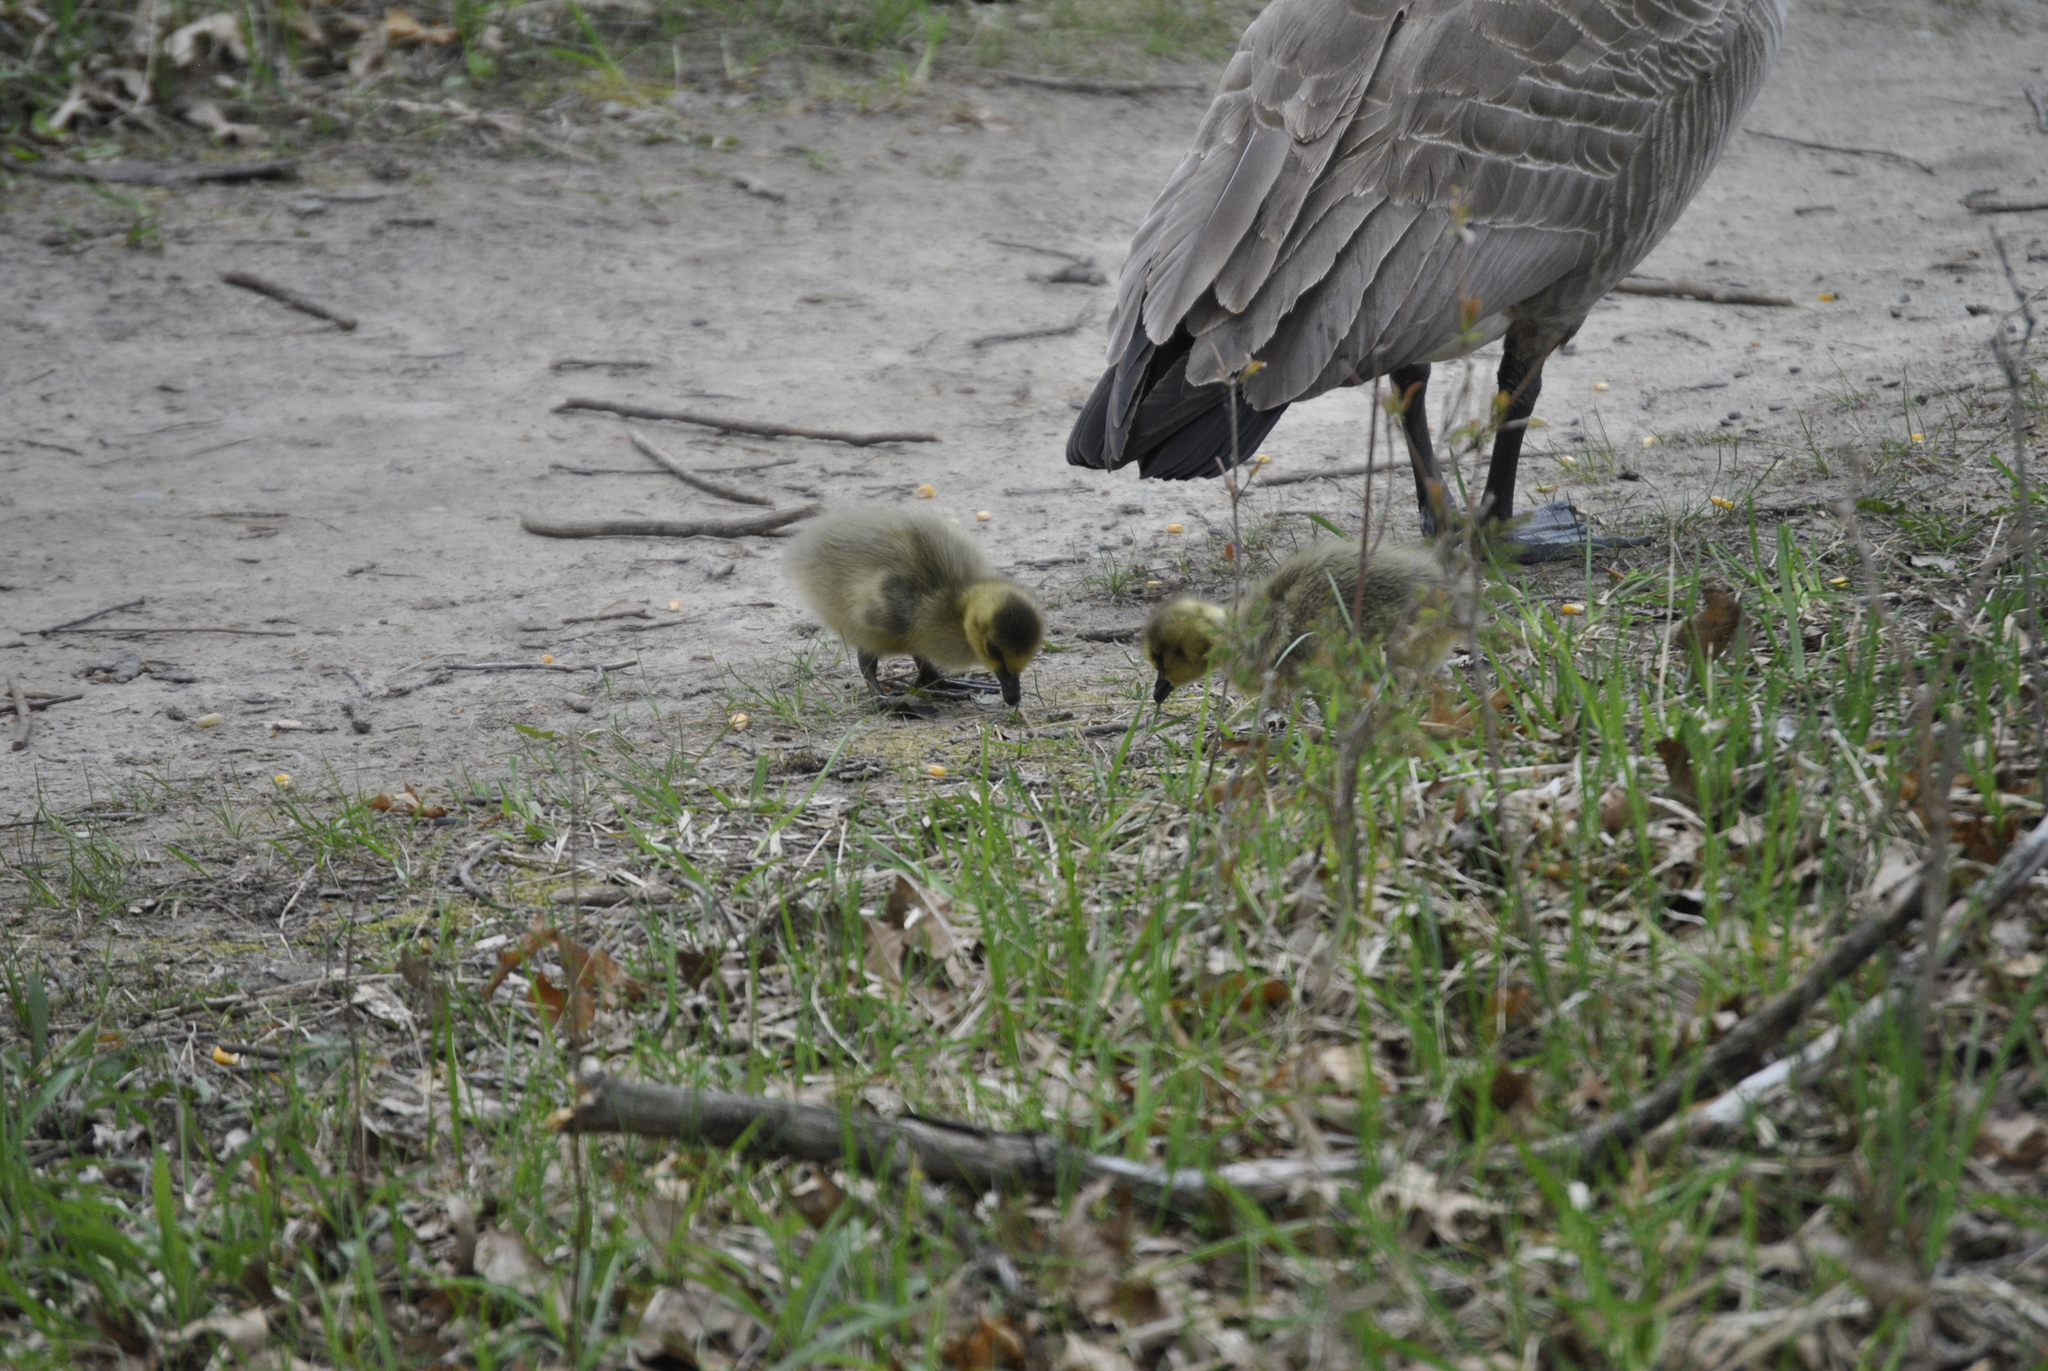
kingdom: Animalia
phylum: Chordata
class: Aves
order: Anseriformes
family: Anatidae
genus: Branta
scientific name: Branta canadensis
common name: Canada goose
